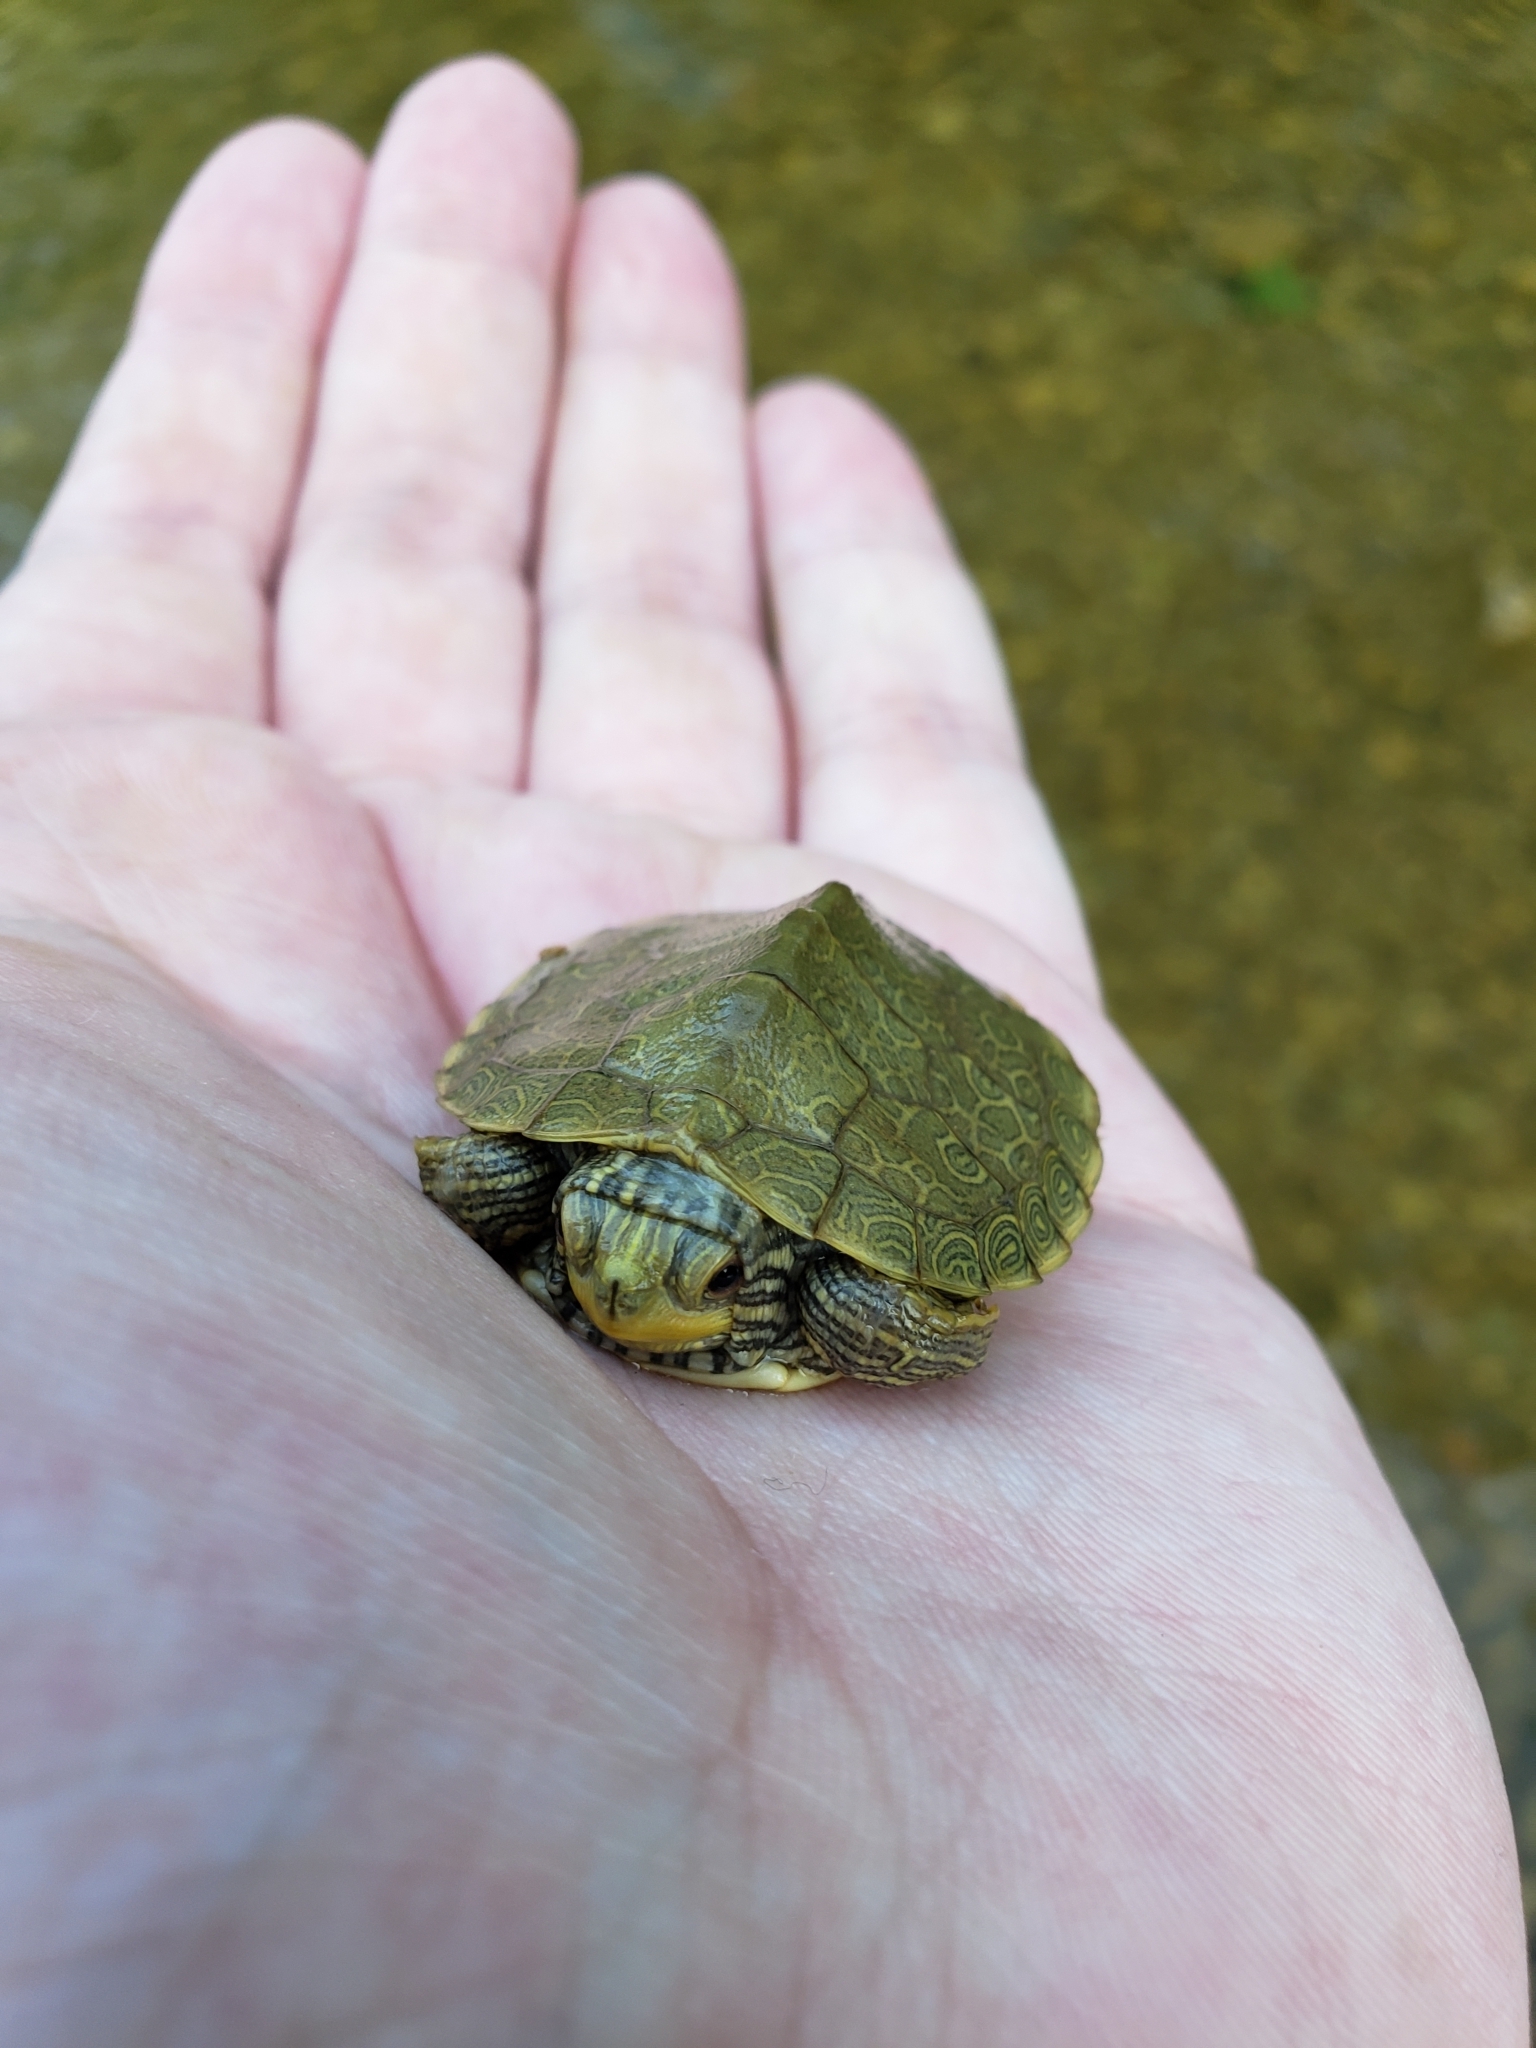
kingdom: Animalia
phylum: Chordata
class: Testudines
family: Emydidae
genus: Graptemys
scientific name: Graptemys geographica
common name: Common map turtle
